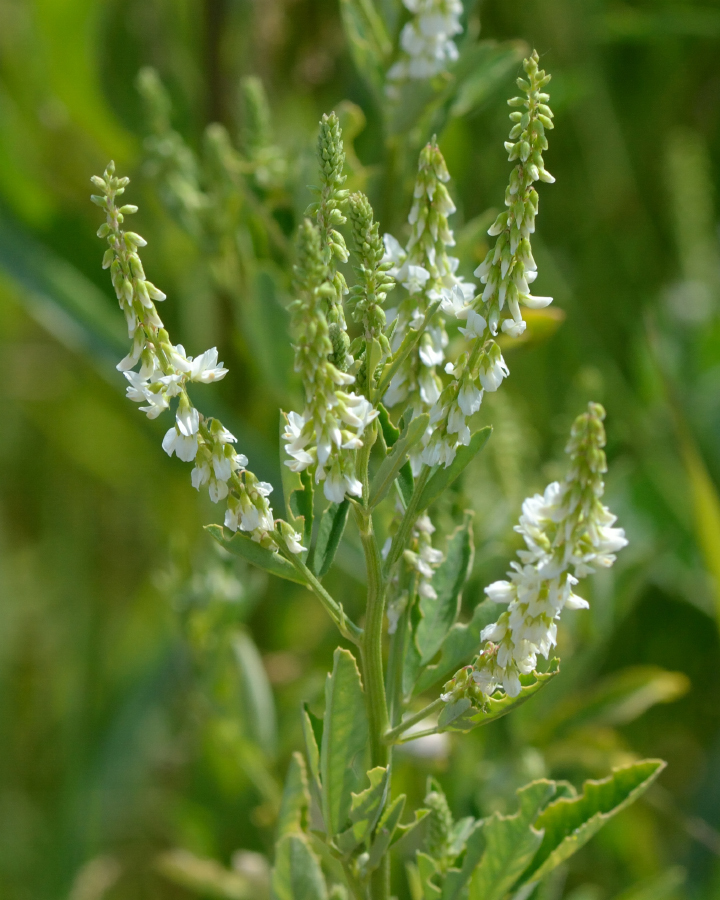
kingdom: Plantae
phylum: Tracheophyta
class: Magnoliopsida
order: Fabales
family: Fabaceae
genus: Melilotus
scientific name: Melilotus albus
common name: White melilot
